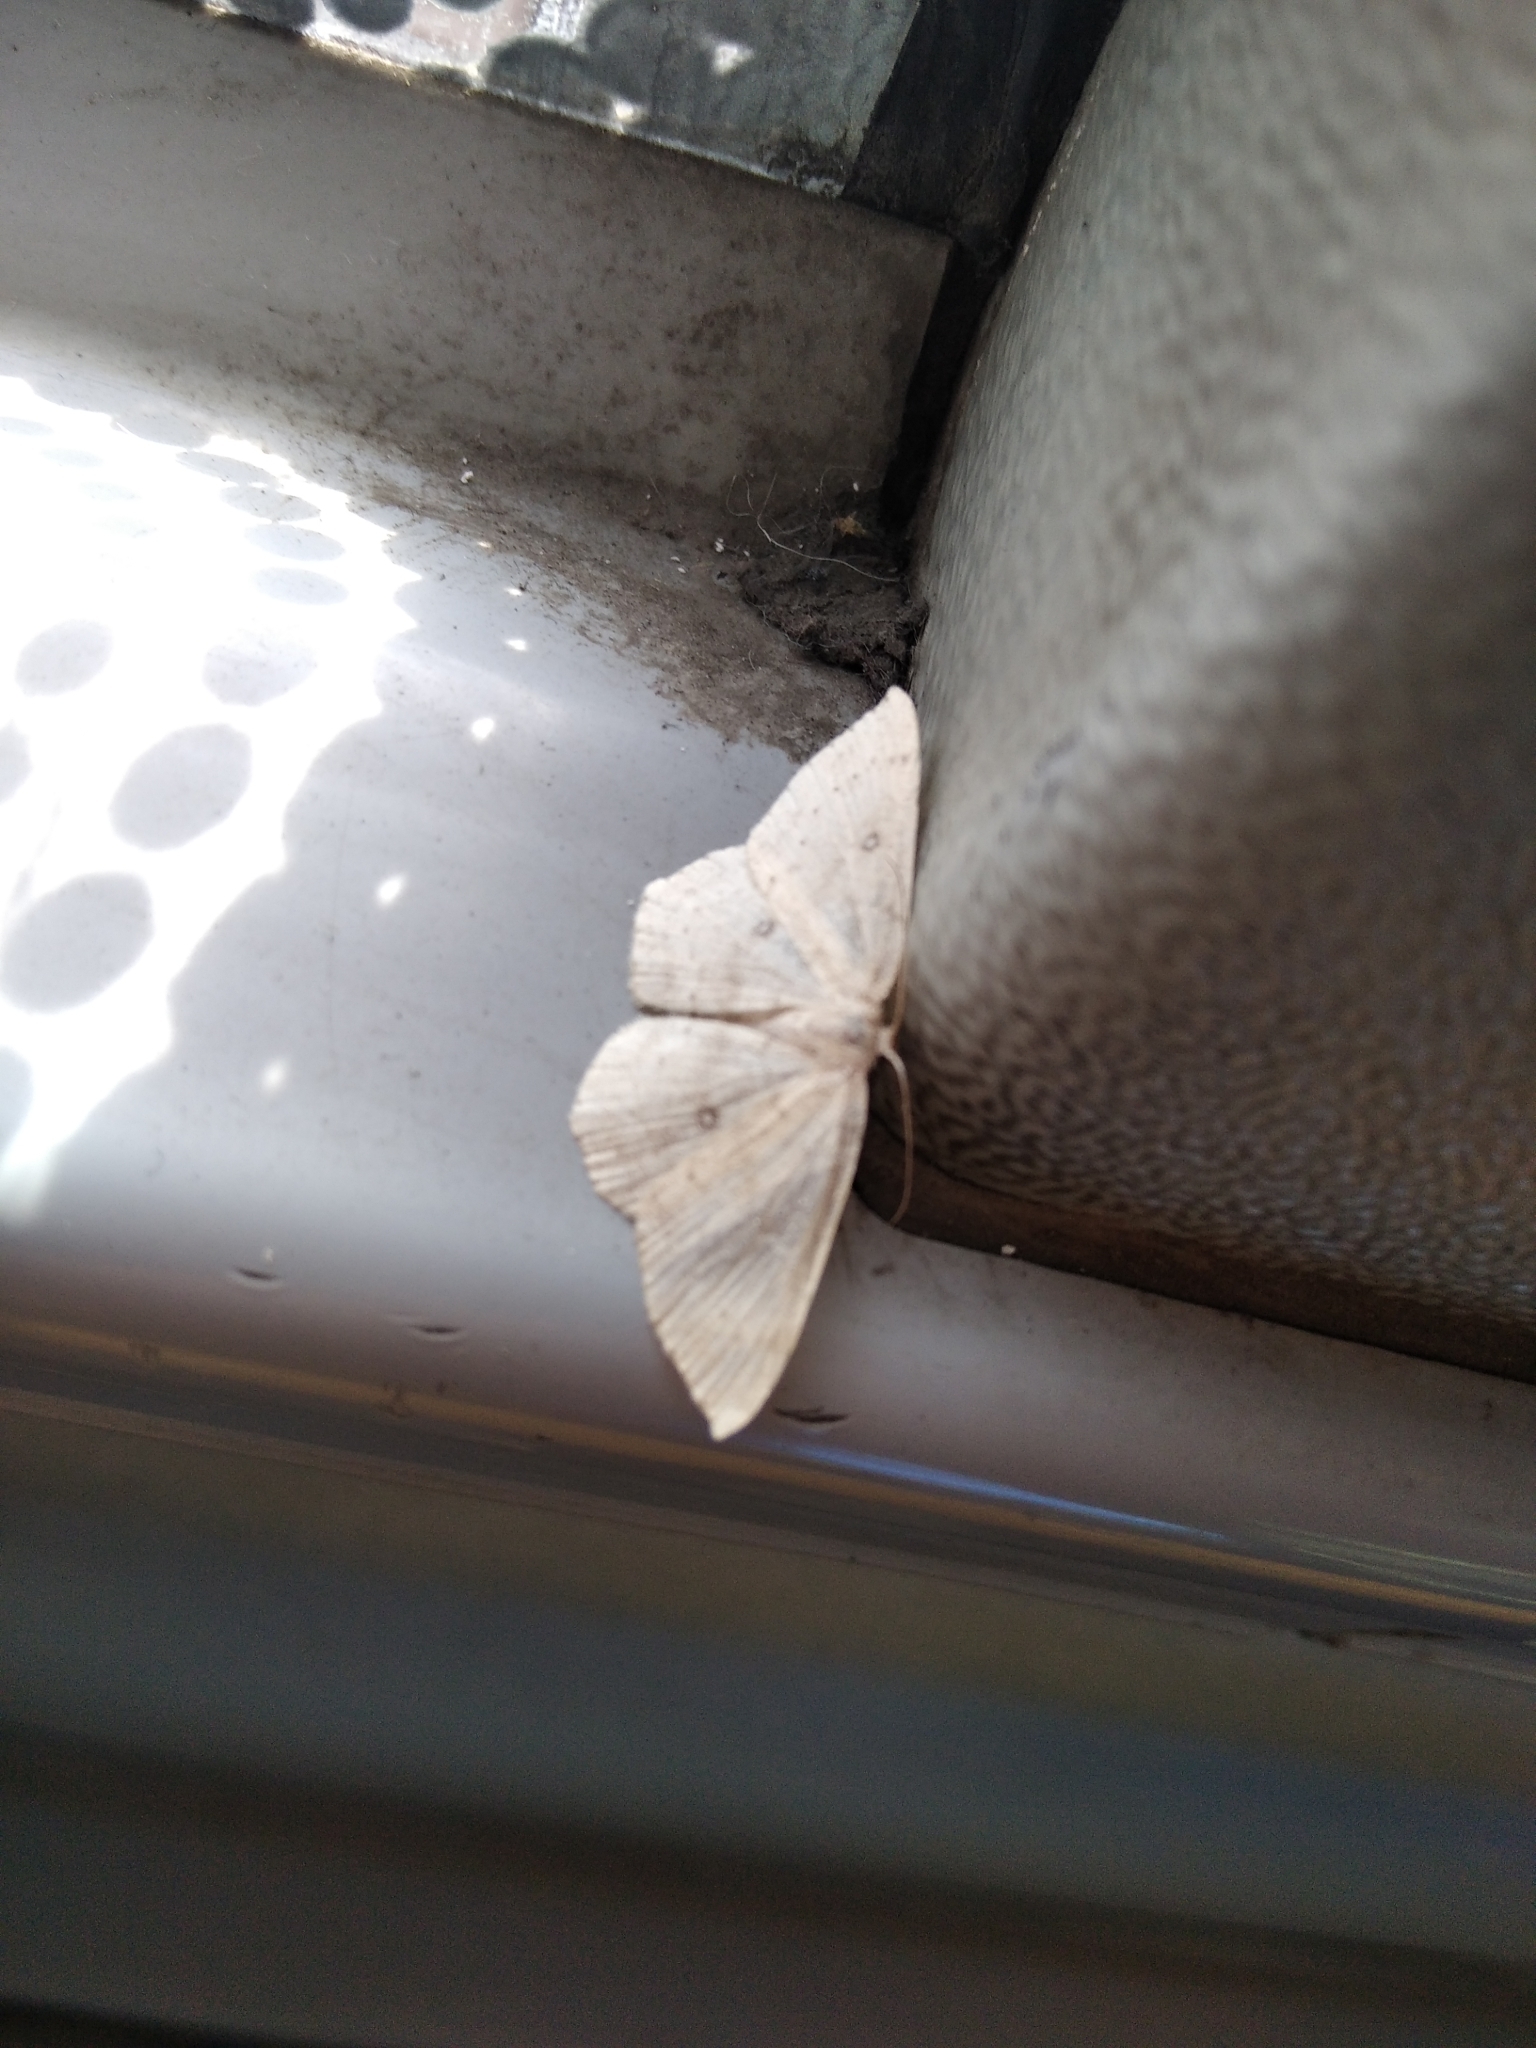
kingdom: Animalia
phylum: Arthropoda
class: Insecta
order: Lepidoptera
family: Geometridae
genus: Cyclophora
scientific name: Cyclophora albipunctata
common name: Birch mocha
